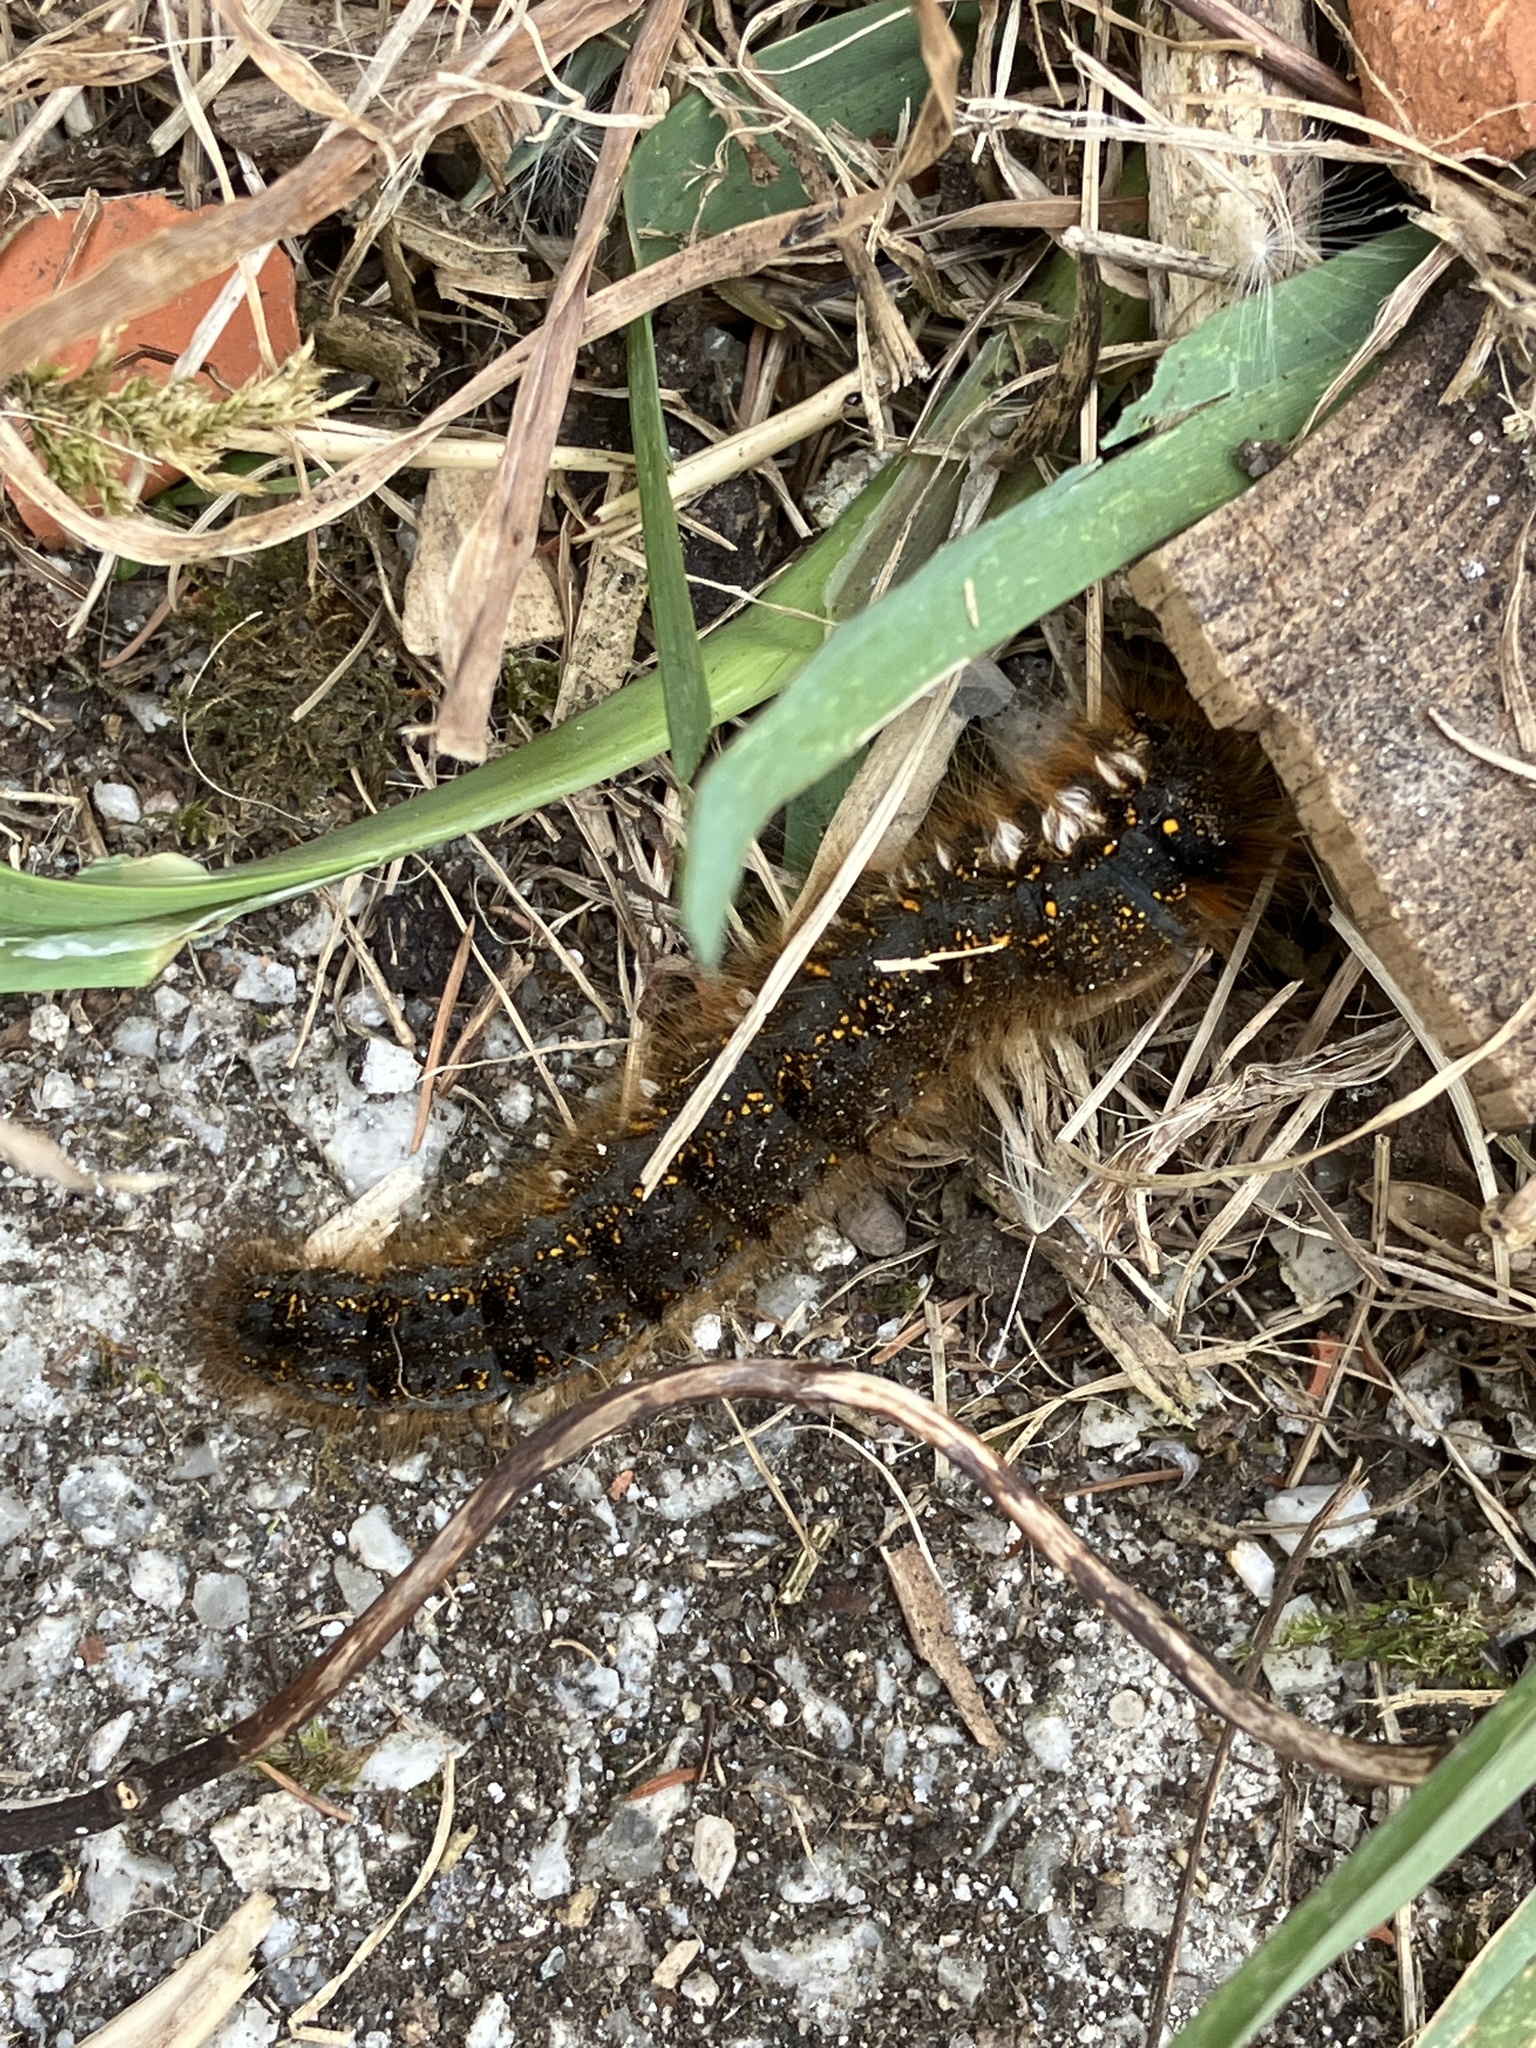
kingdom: Animalia
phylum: Arthropoda
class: Insecta
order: Lepidoptera
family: Lasiocampidae
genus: Euthrix
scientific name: Euthrix potatoria
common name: Drinker
